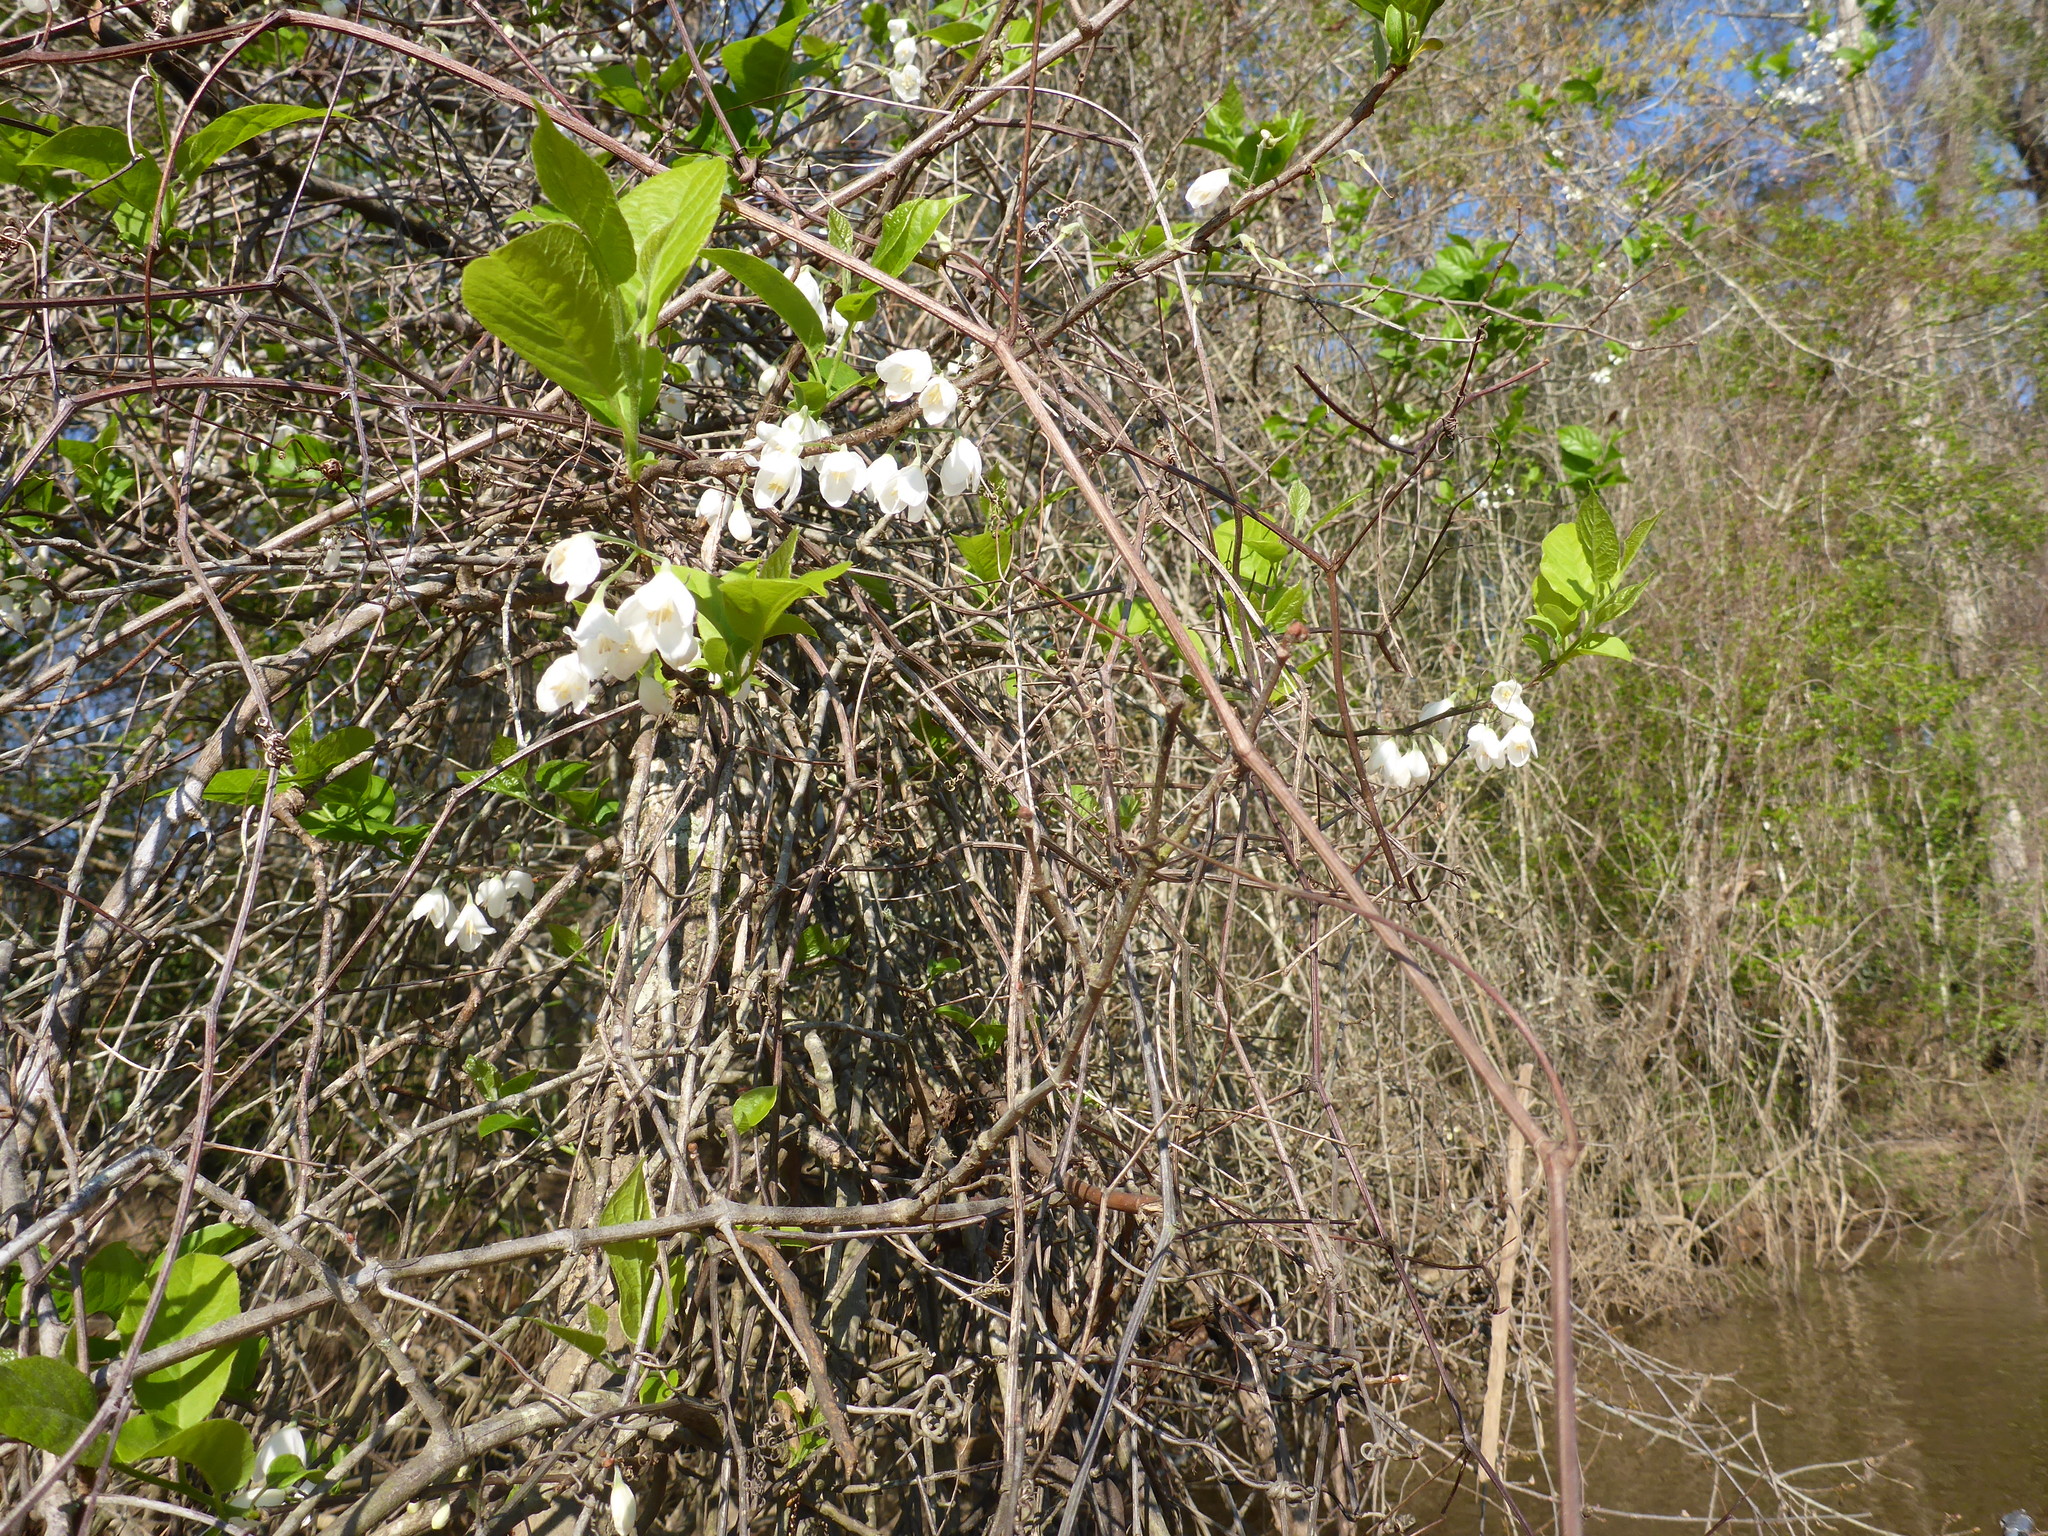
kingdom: Plantae
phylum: Tracheophyta
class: Magnoliopsida
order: Ericales
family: Styracaceae
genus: Halesia
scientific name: Halesia diptera
